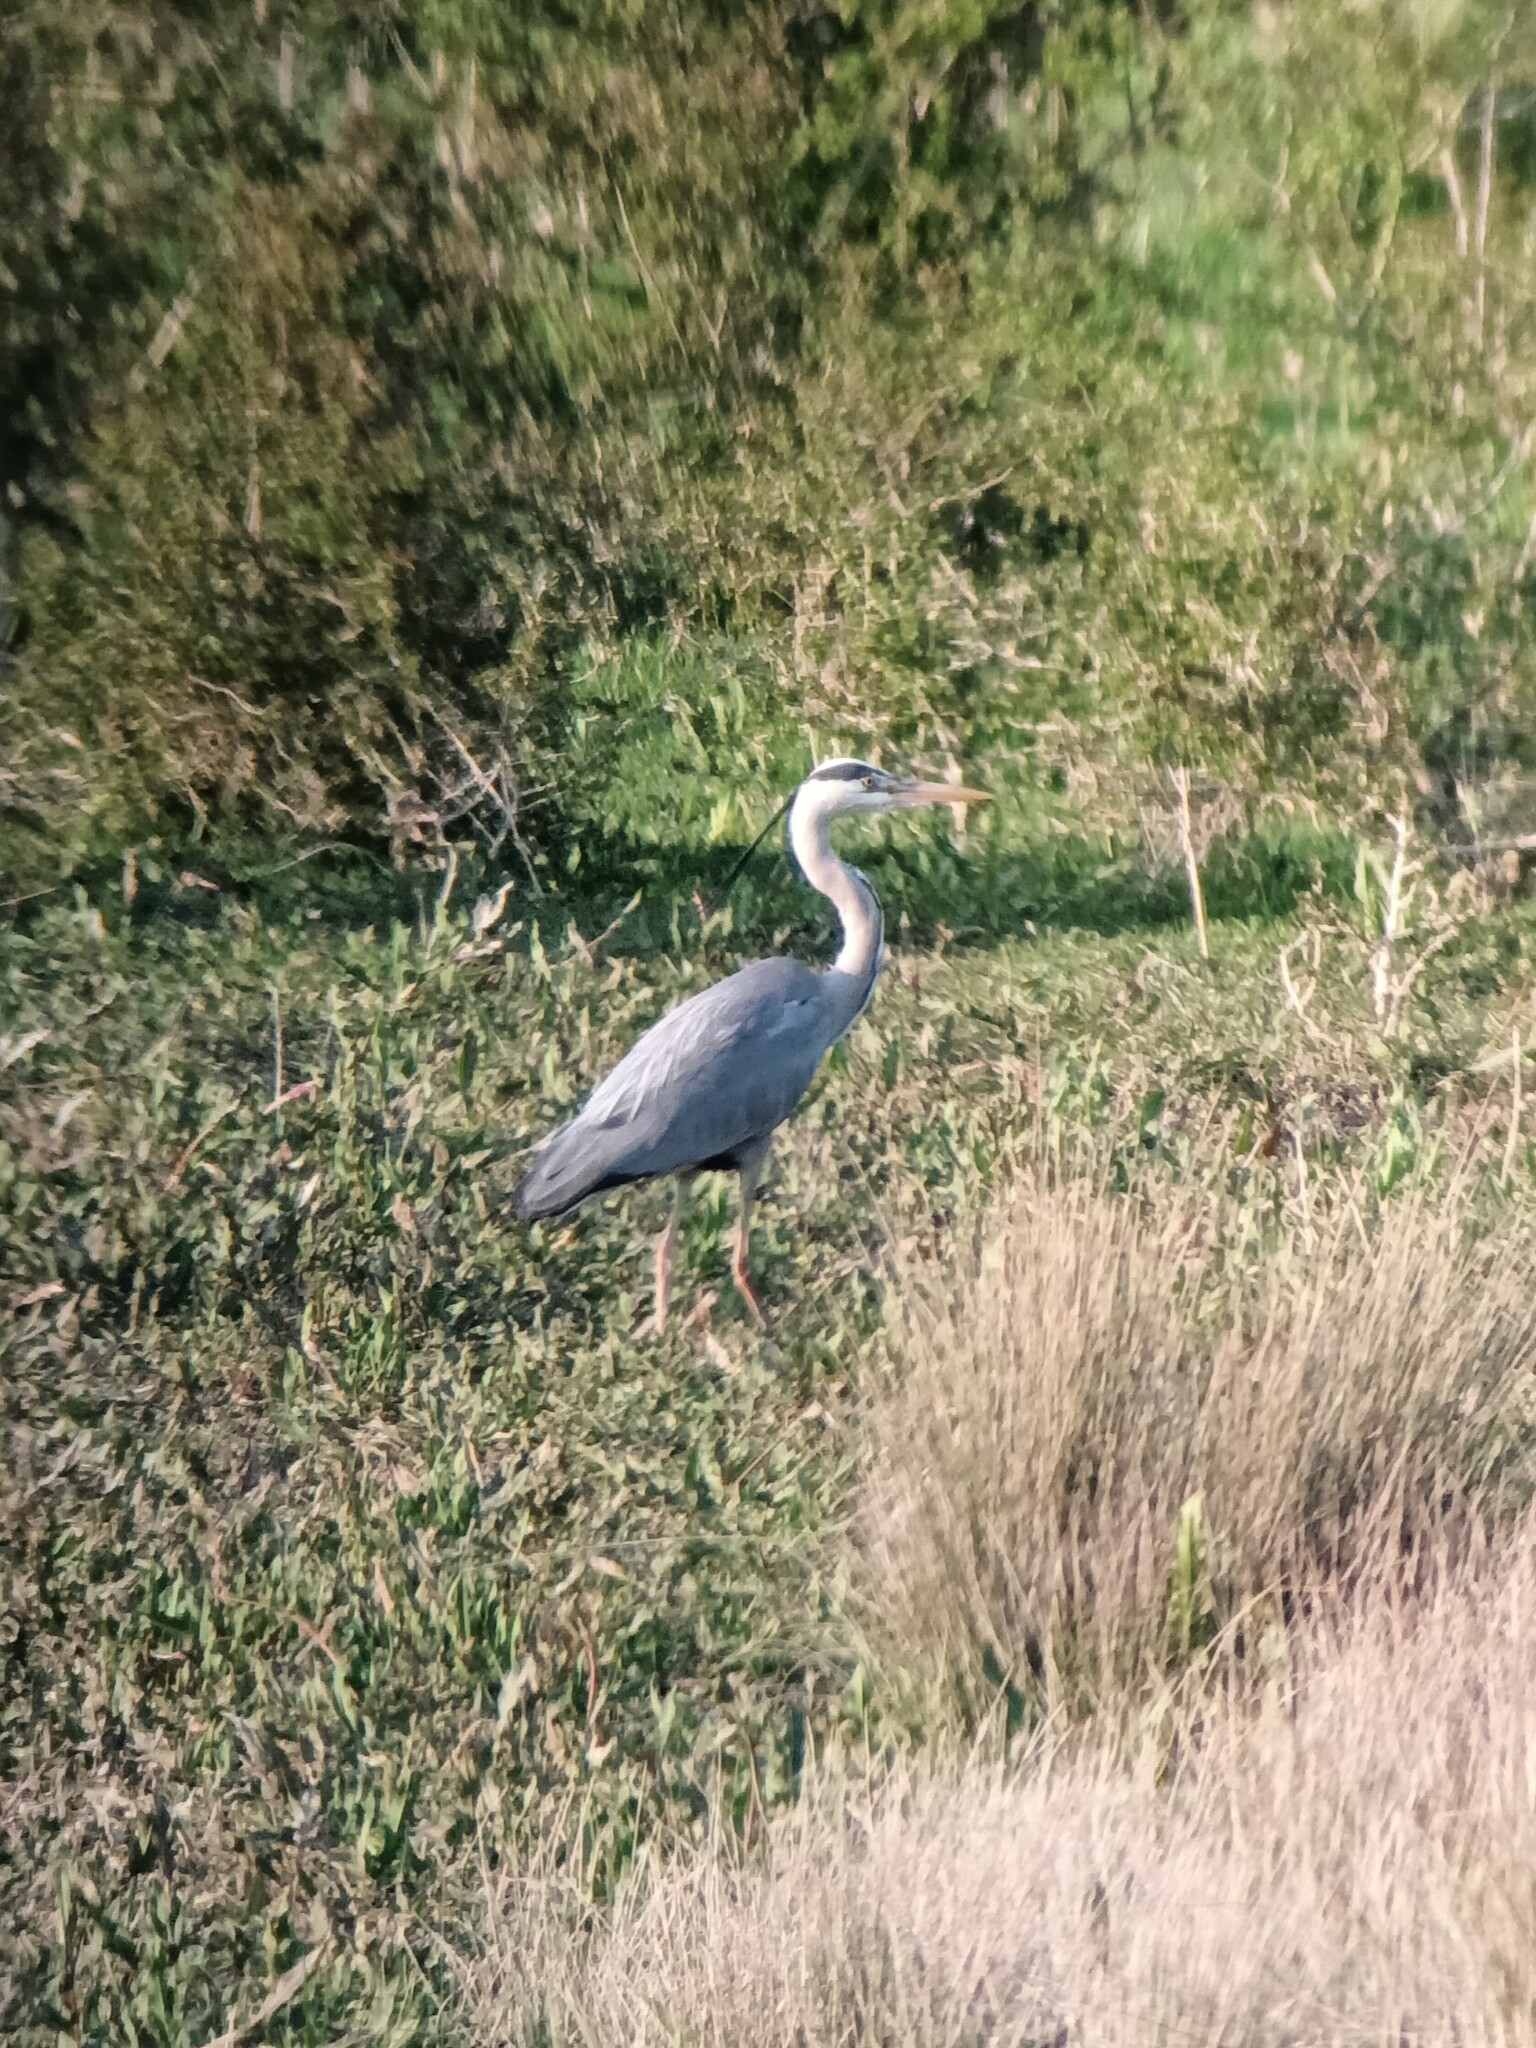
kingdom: Animalia
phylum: Chordata
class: Aves
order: Pelecaniformes
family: Ardeidae
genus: Ardea
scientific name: Ardea cinerea
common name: Grey heron
